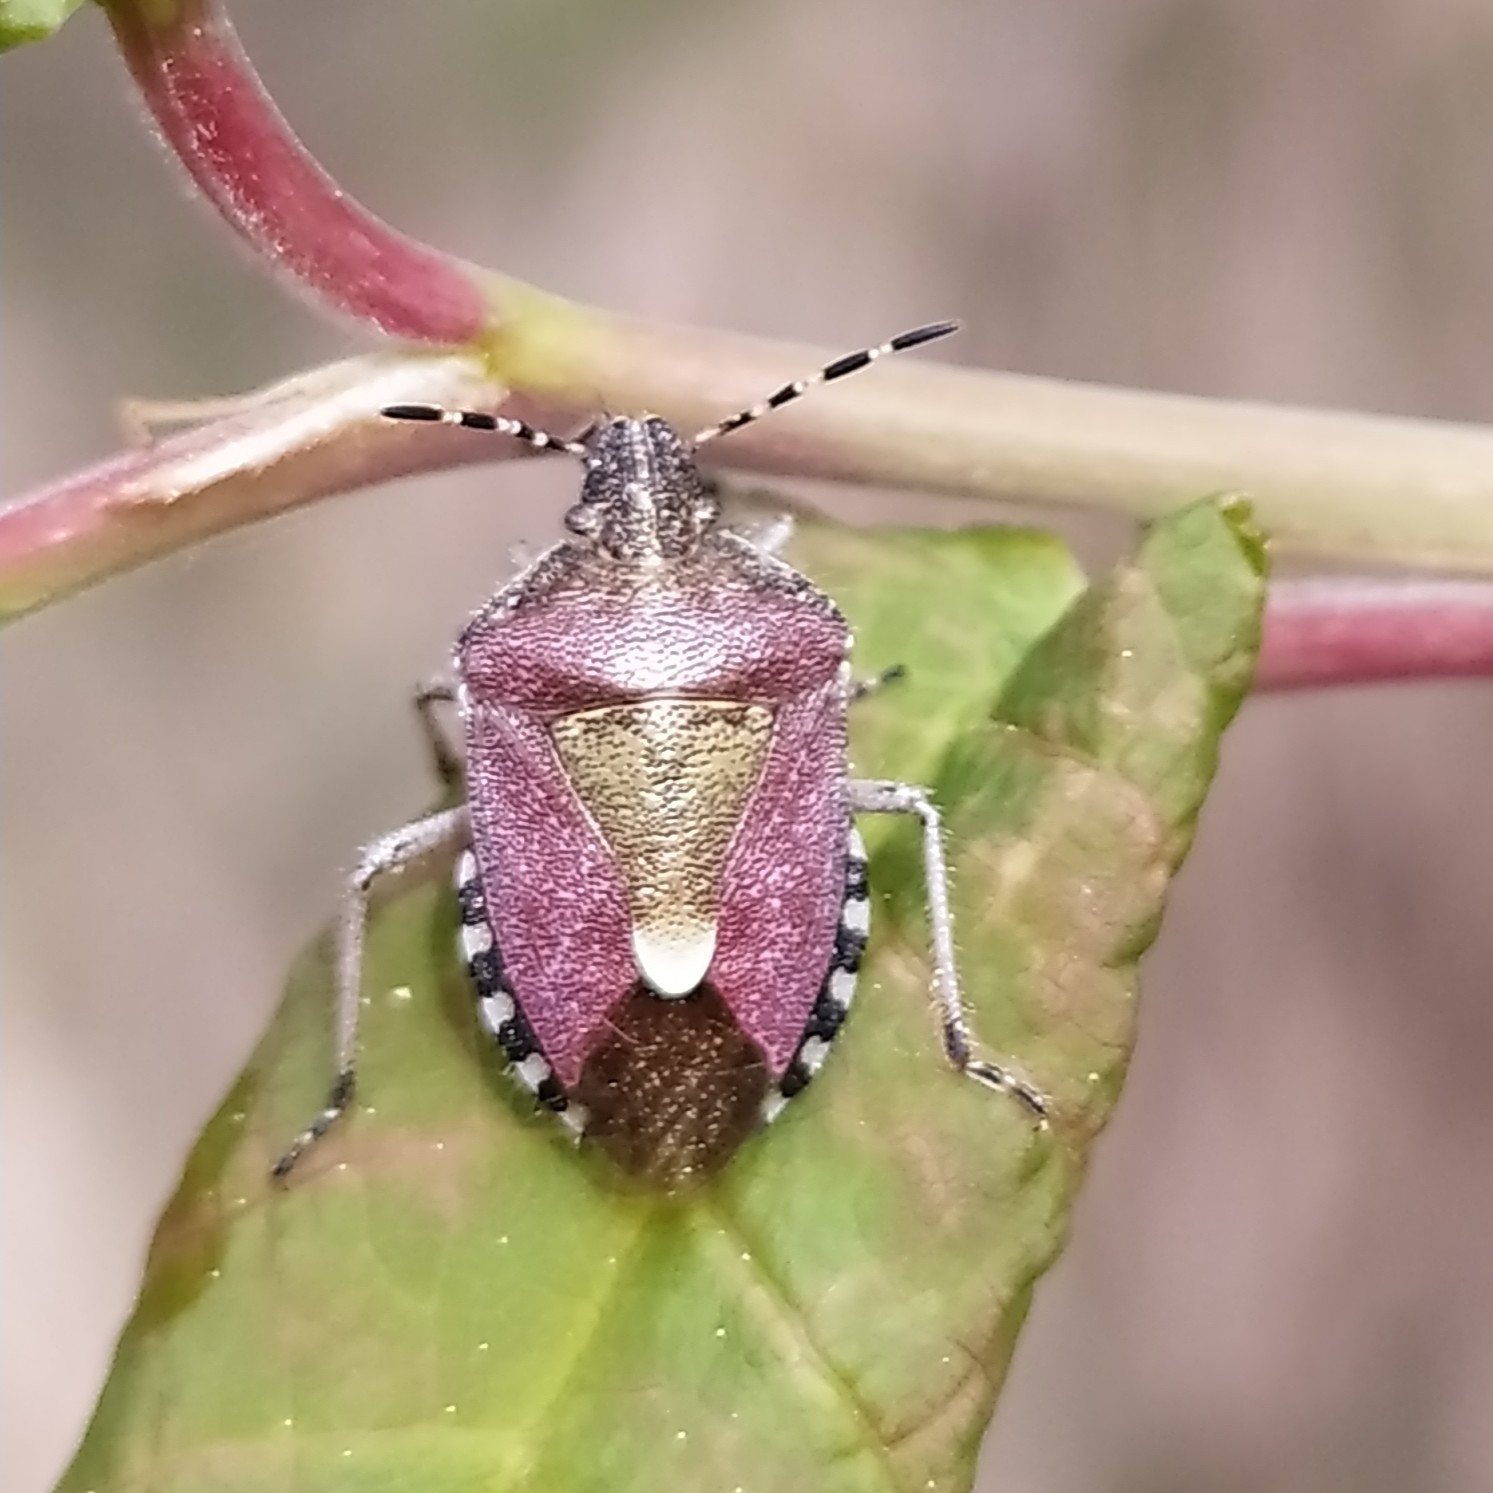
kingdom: Animalia
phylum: Arthropoda
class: Insecta
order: Hemiptera
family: Pentatomidae
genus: Dolycoris
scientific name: Dolycoris baccarum
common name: Sloe bug
